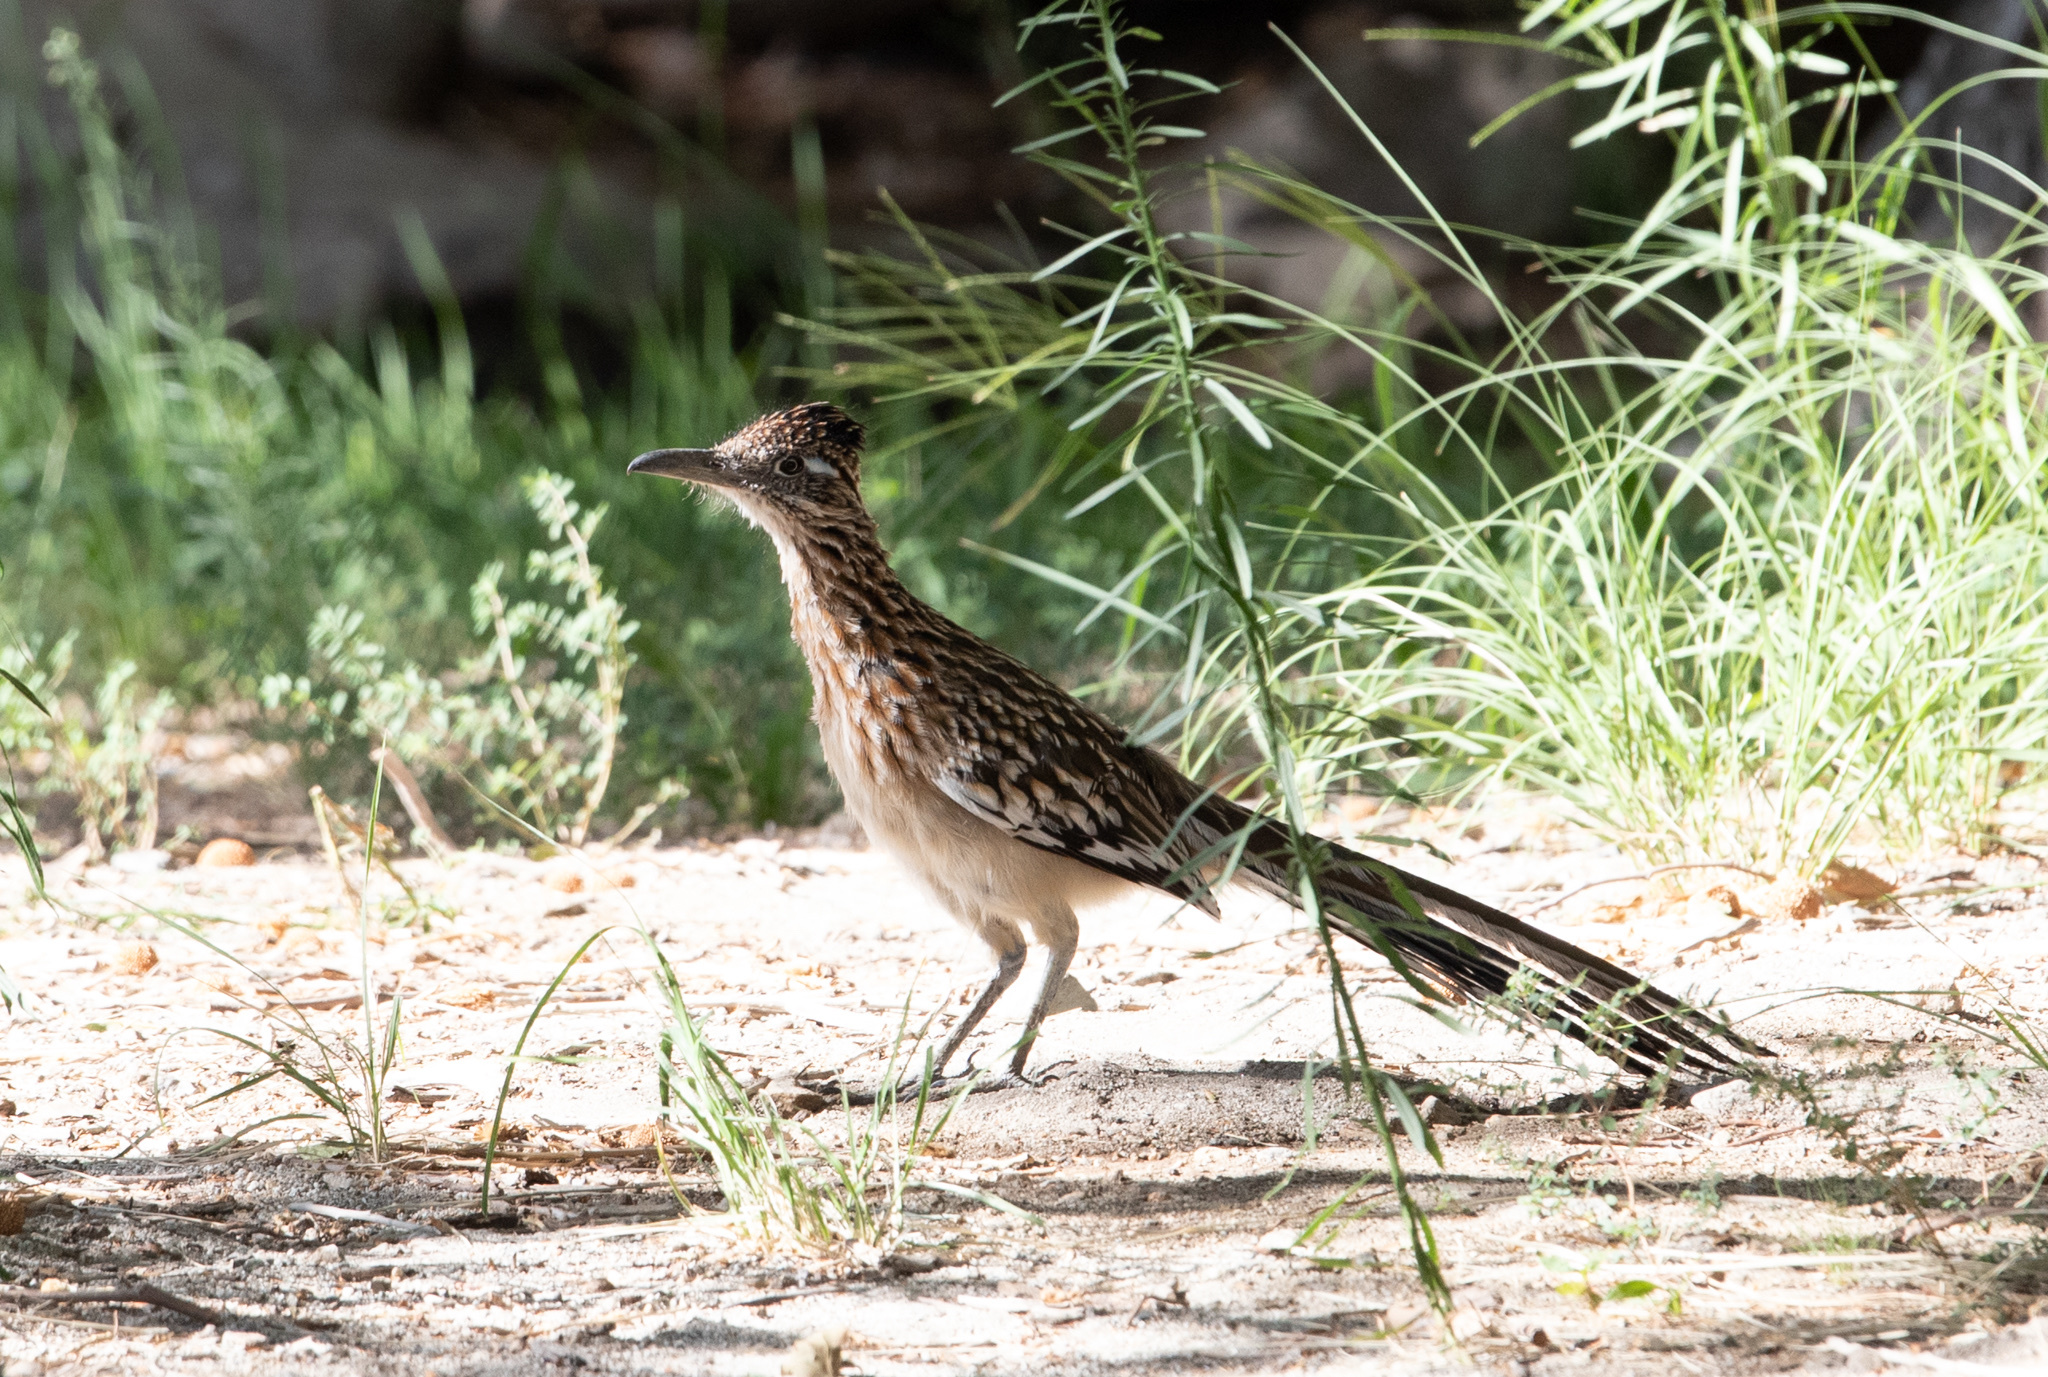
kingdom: Animalia
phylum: Chordata
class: Aves
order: Cuculiformes
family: Cuculidae
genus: Geococcyx
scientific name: Geococcyx californianus
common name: Greater roadrunner
